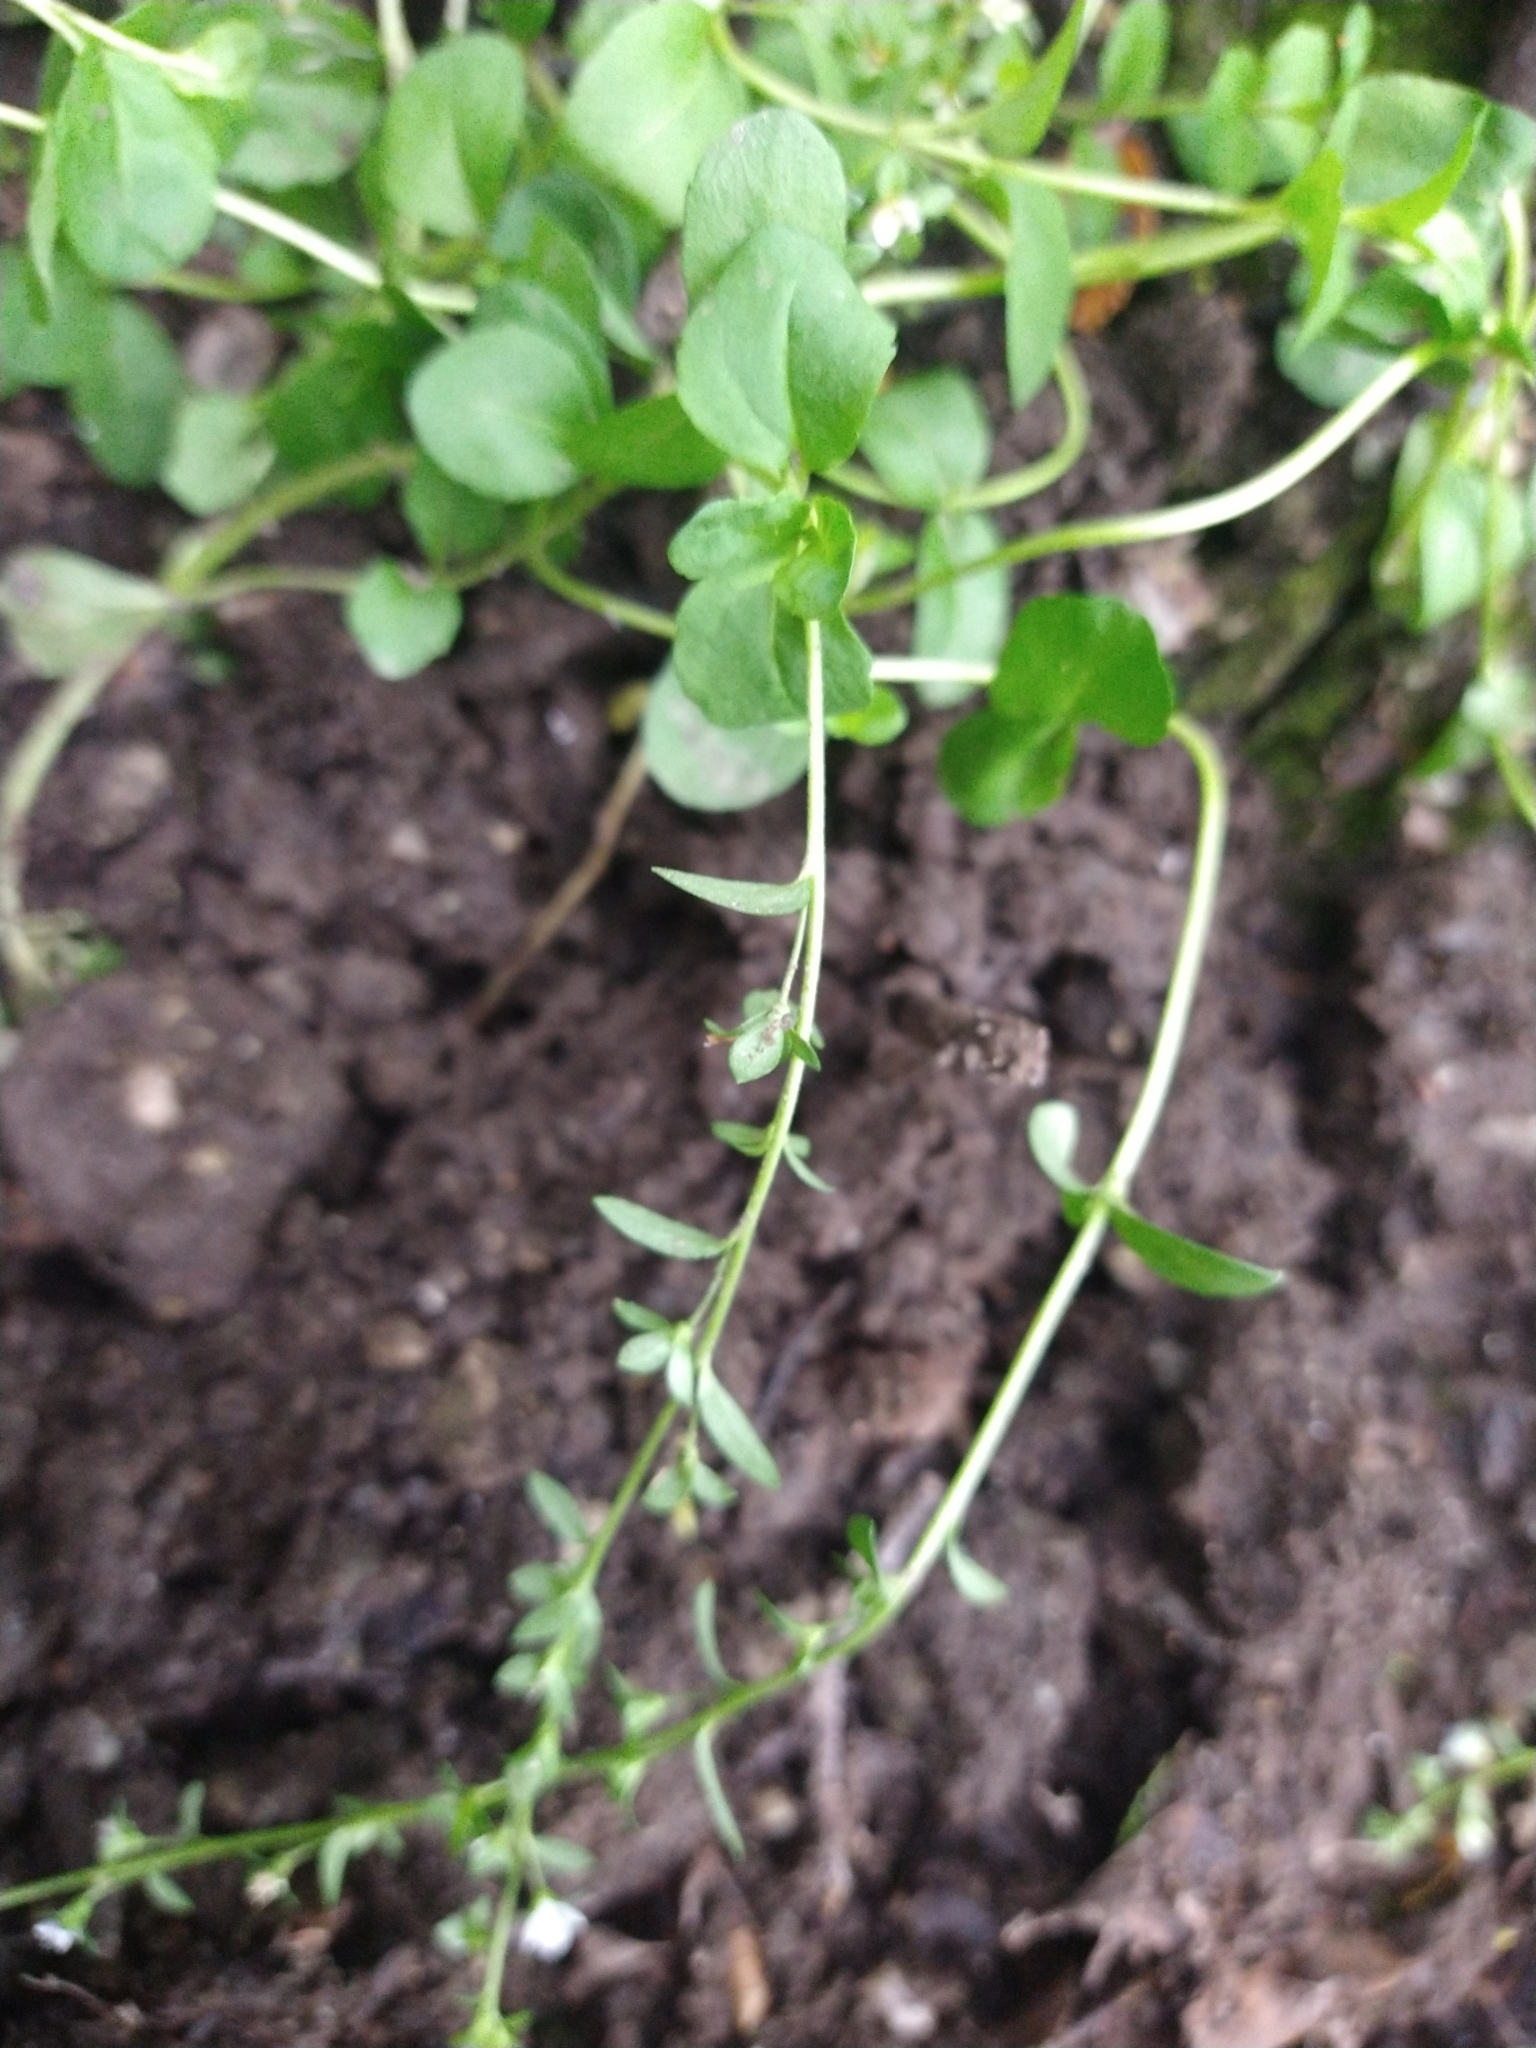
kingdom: Plantae
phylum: Tracheophyta
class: Magnoliopsida
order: Lamiales
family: Plantaginaceae
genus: Veronica
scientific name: Veronica serpyllifolia
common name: Thyme-leaved speedwell
